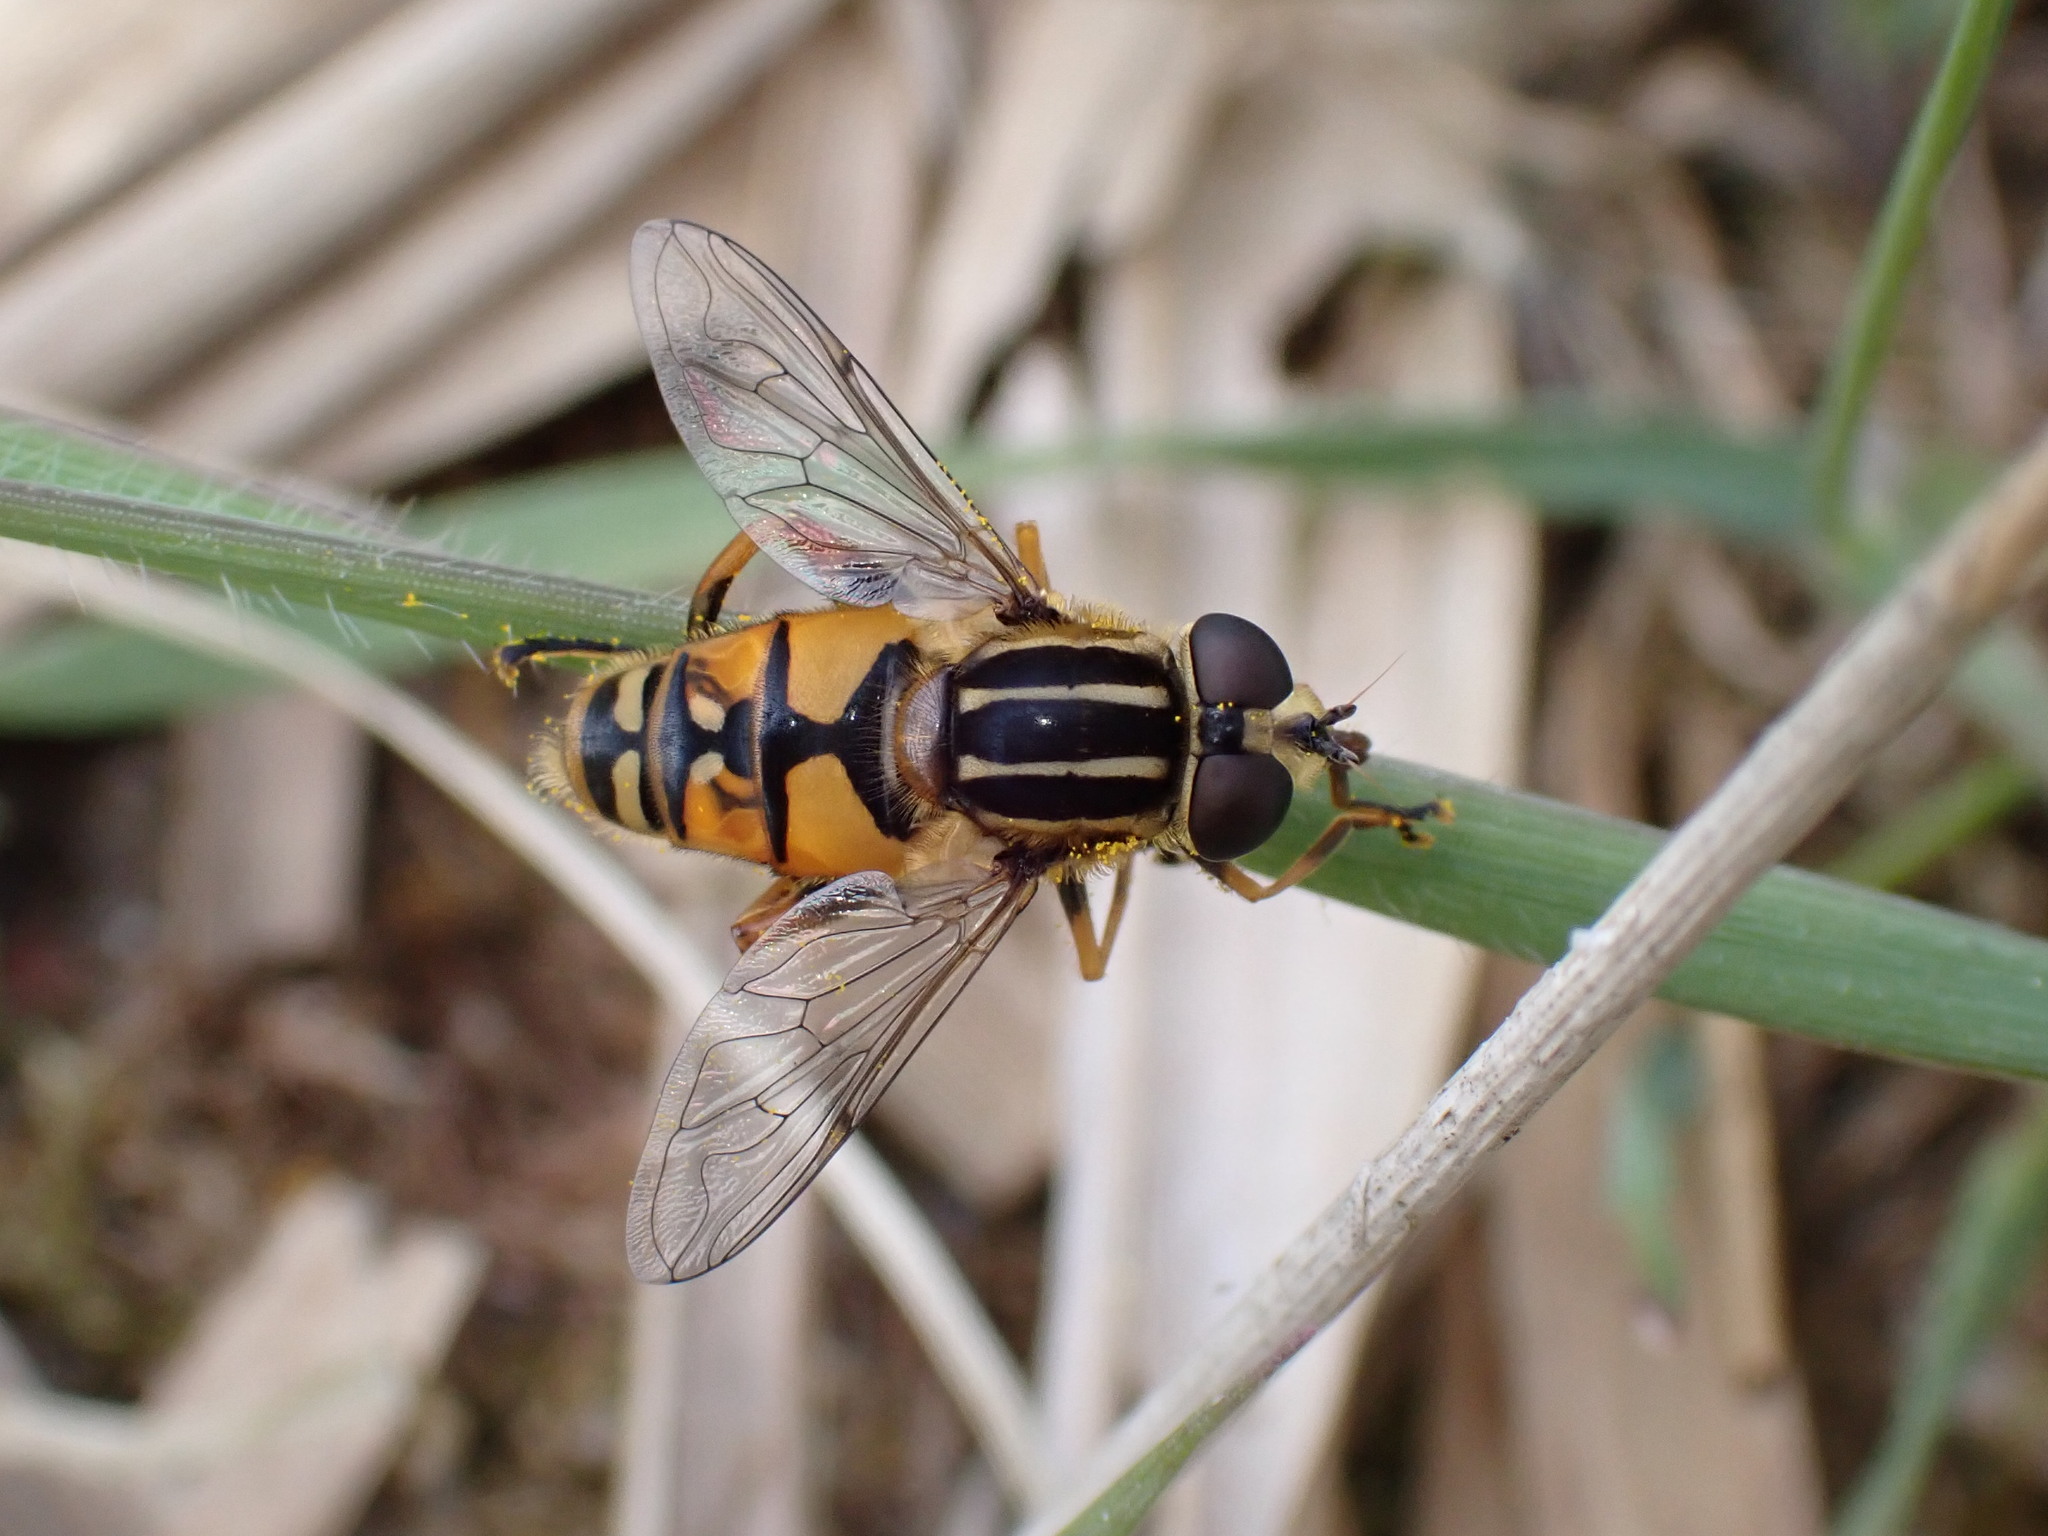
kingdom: Animalia
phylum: Arthropoda
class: Insecta
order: Diptera
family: Syrphidae
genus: Helophilus
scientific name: Helophilus pendulus
